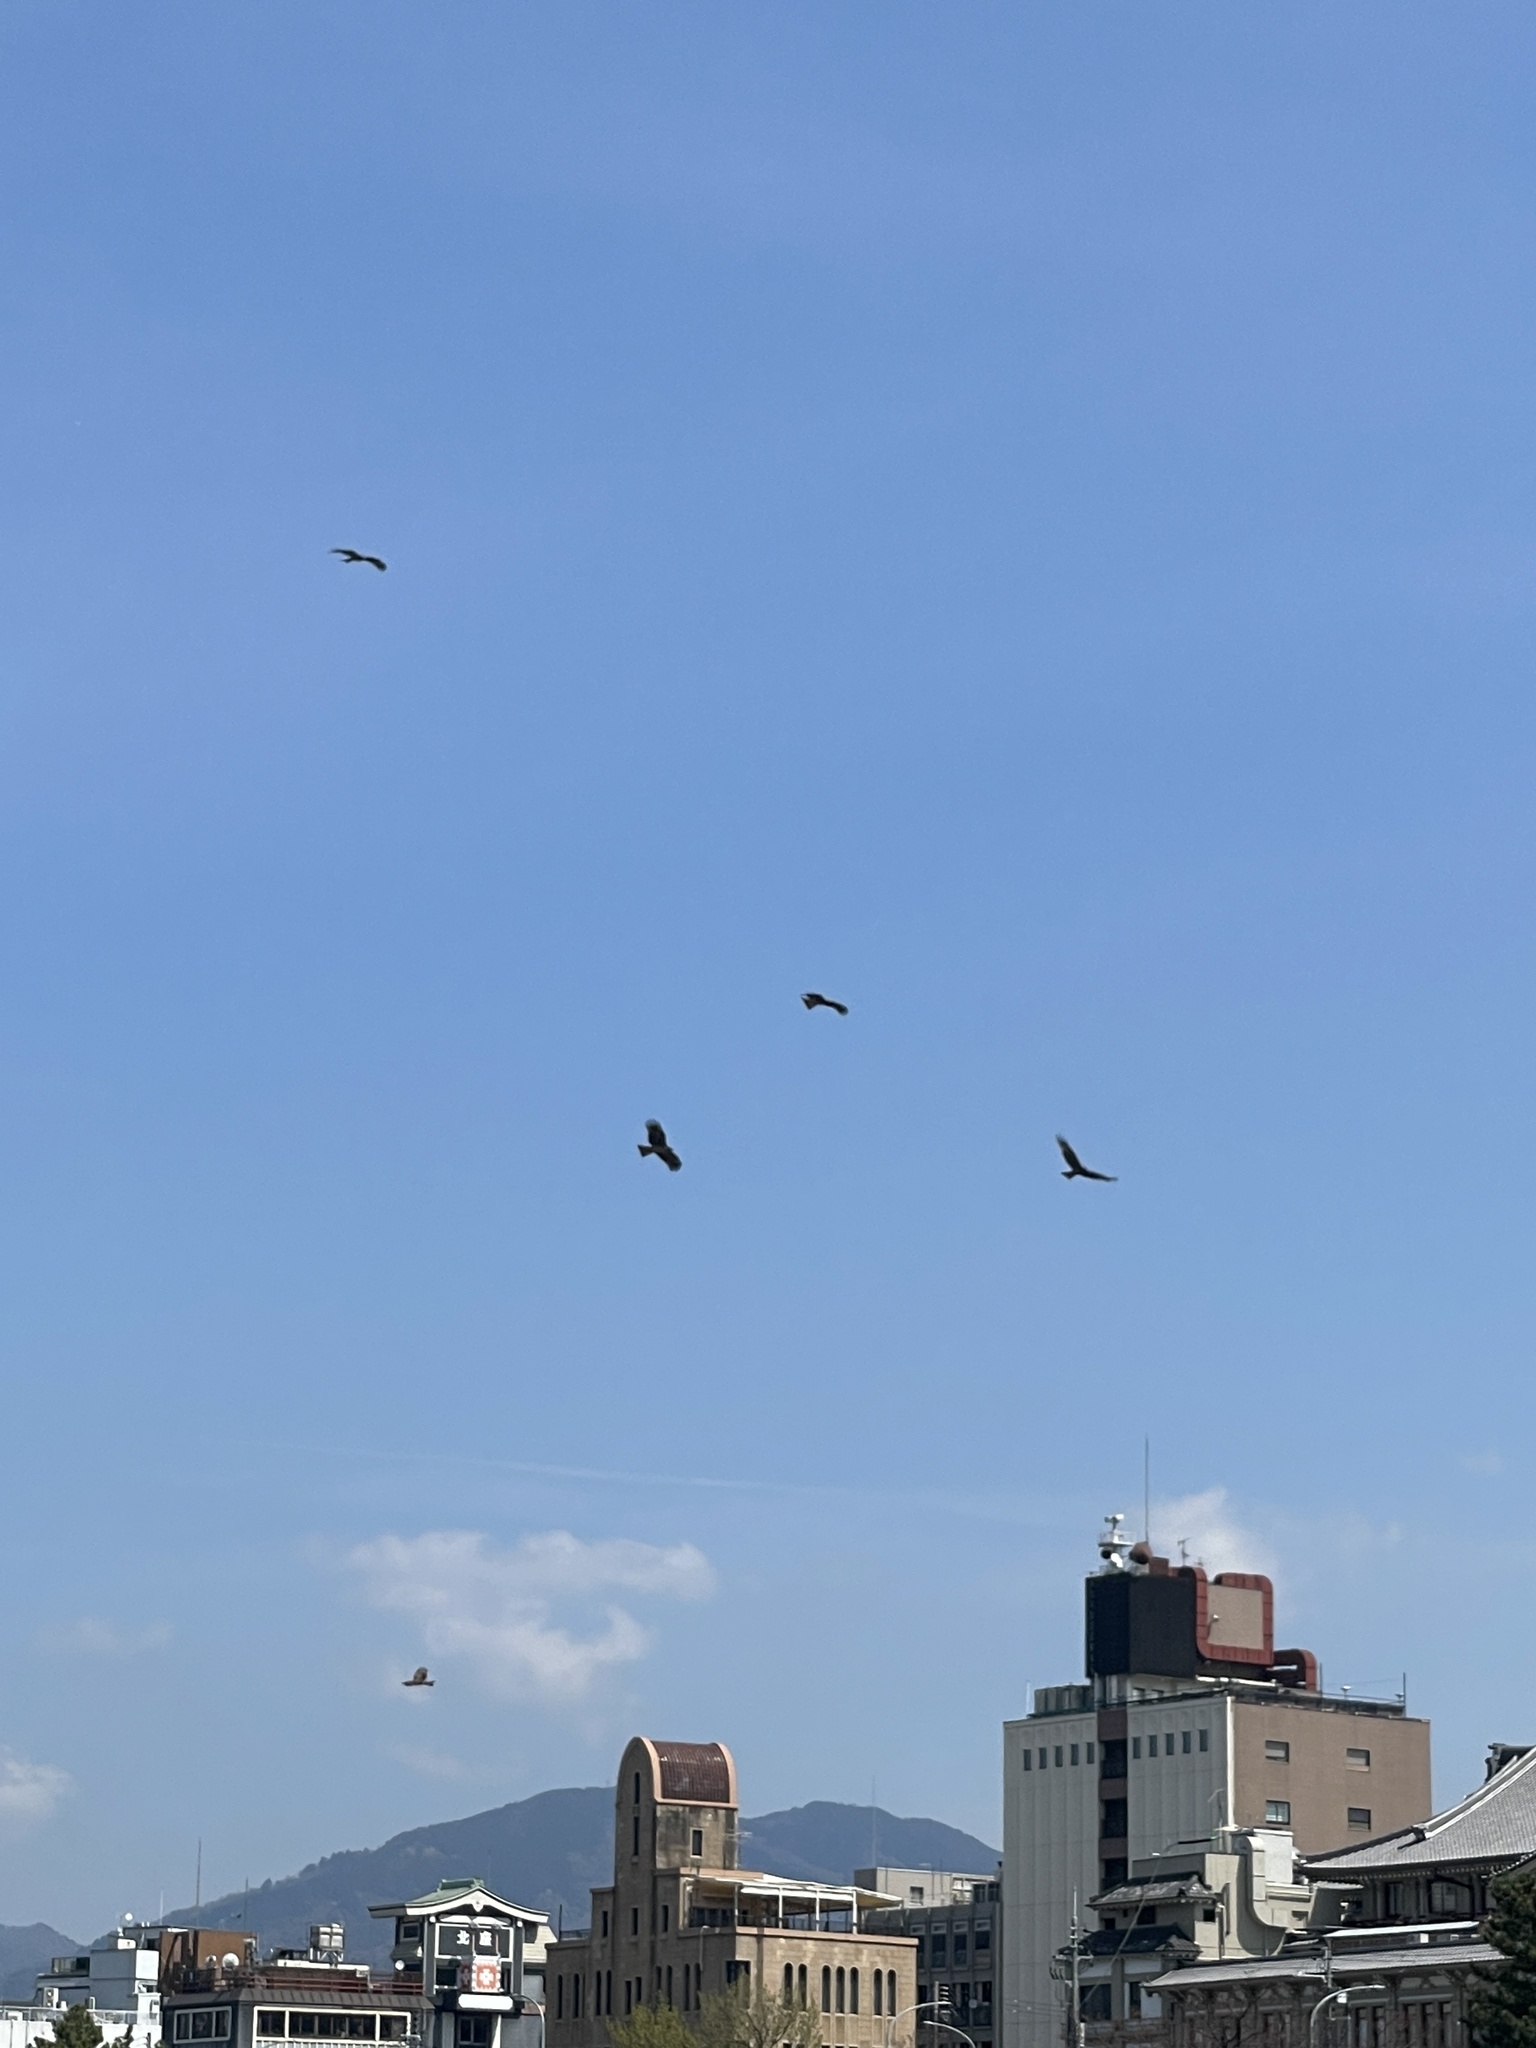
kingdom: Animalia
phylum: Chordata
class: Aves
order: Accipitriformes
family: Accipitridae
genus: Milvus
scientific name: Milvus migrans
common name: Black kite
